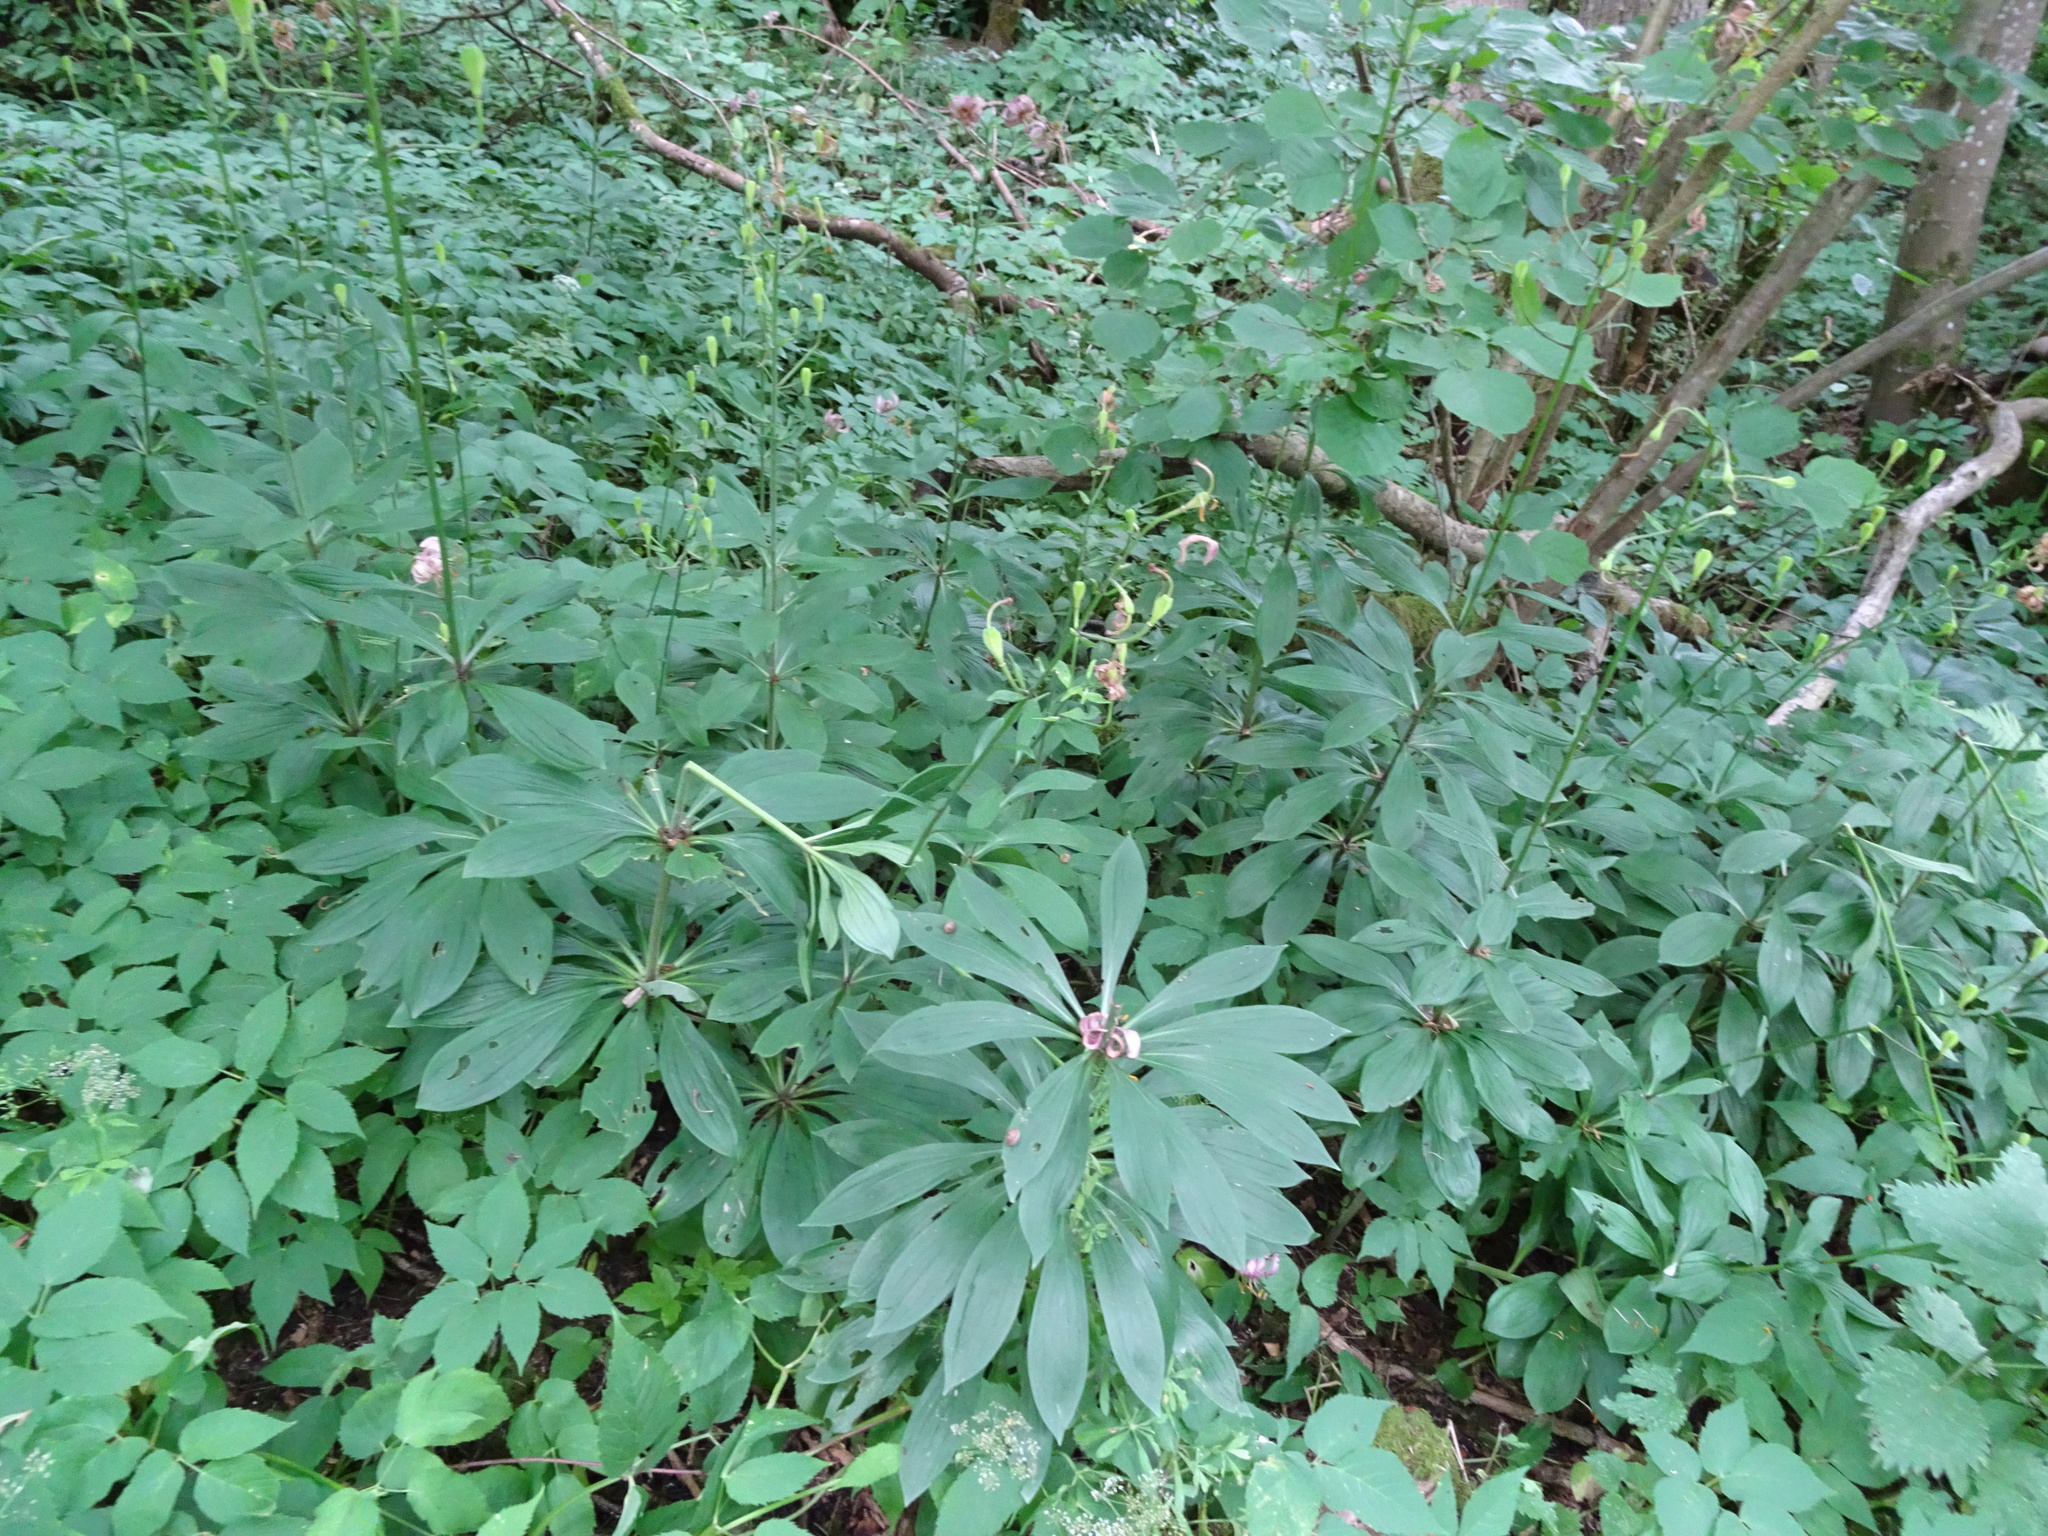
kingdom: Plantae
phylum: Tracheophyta
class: Liliopsida
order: Liliales
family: Liliaceae
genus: Lilium
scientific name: Lilium martagon
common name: Martagon lily
